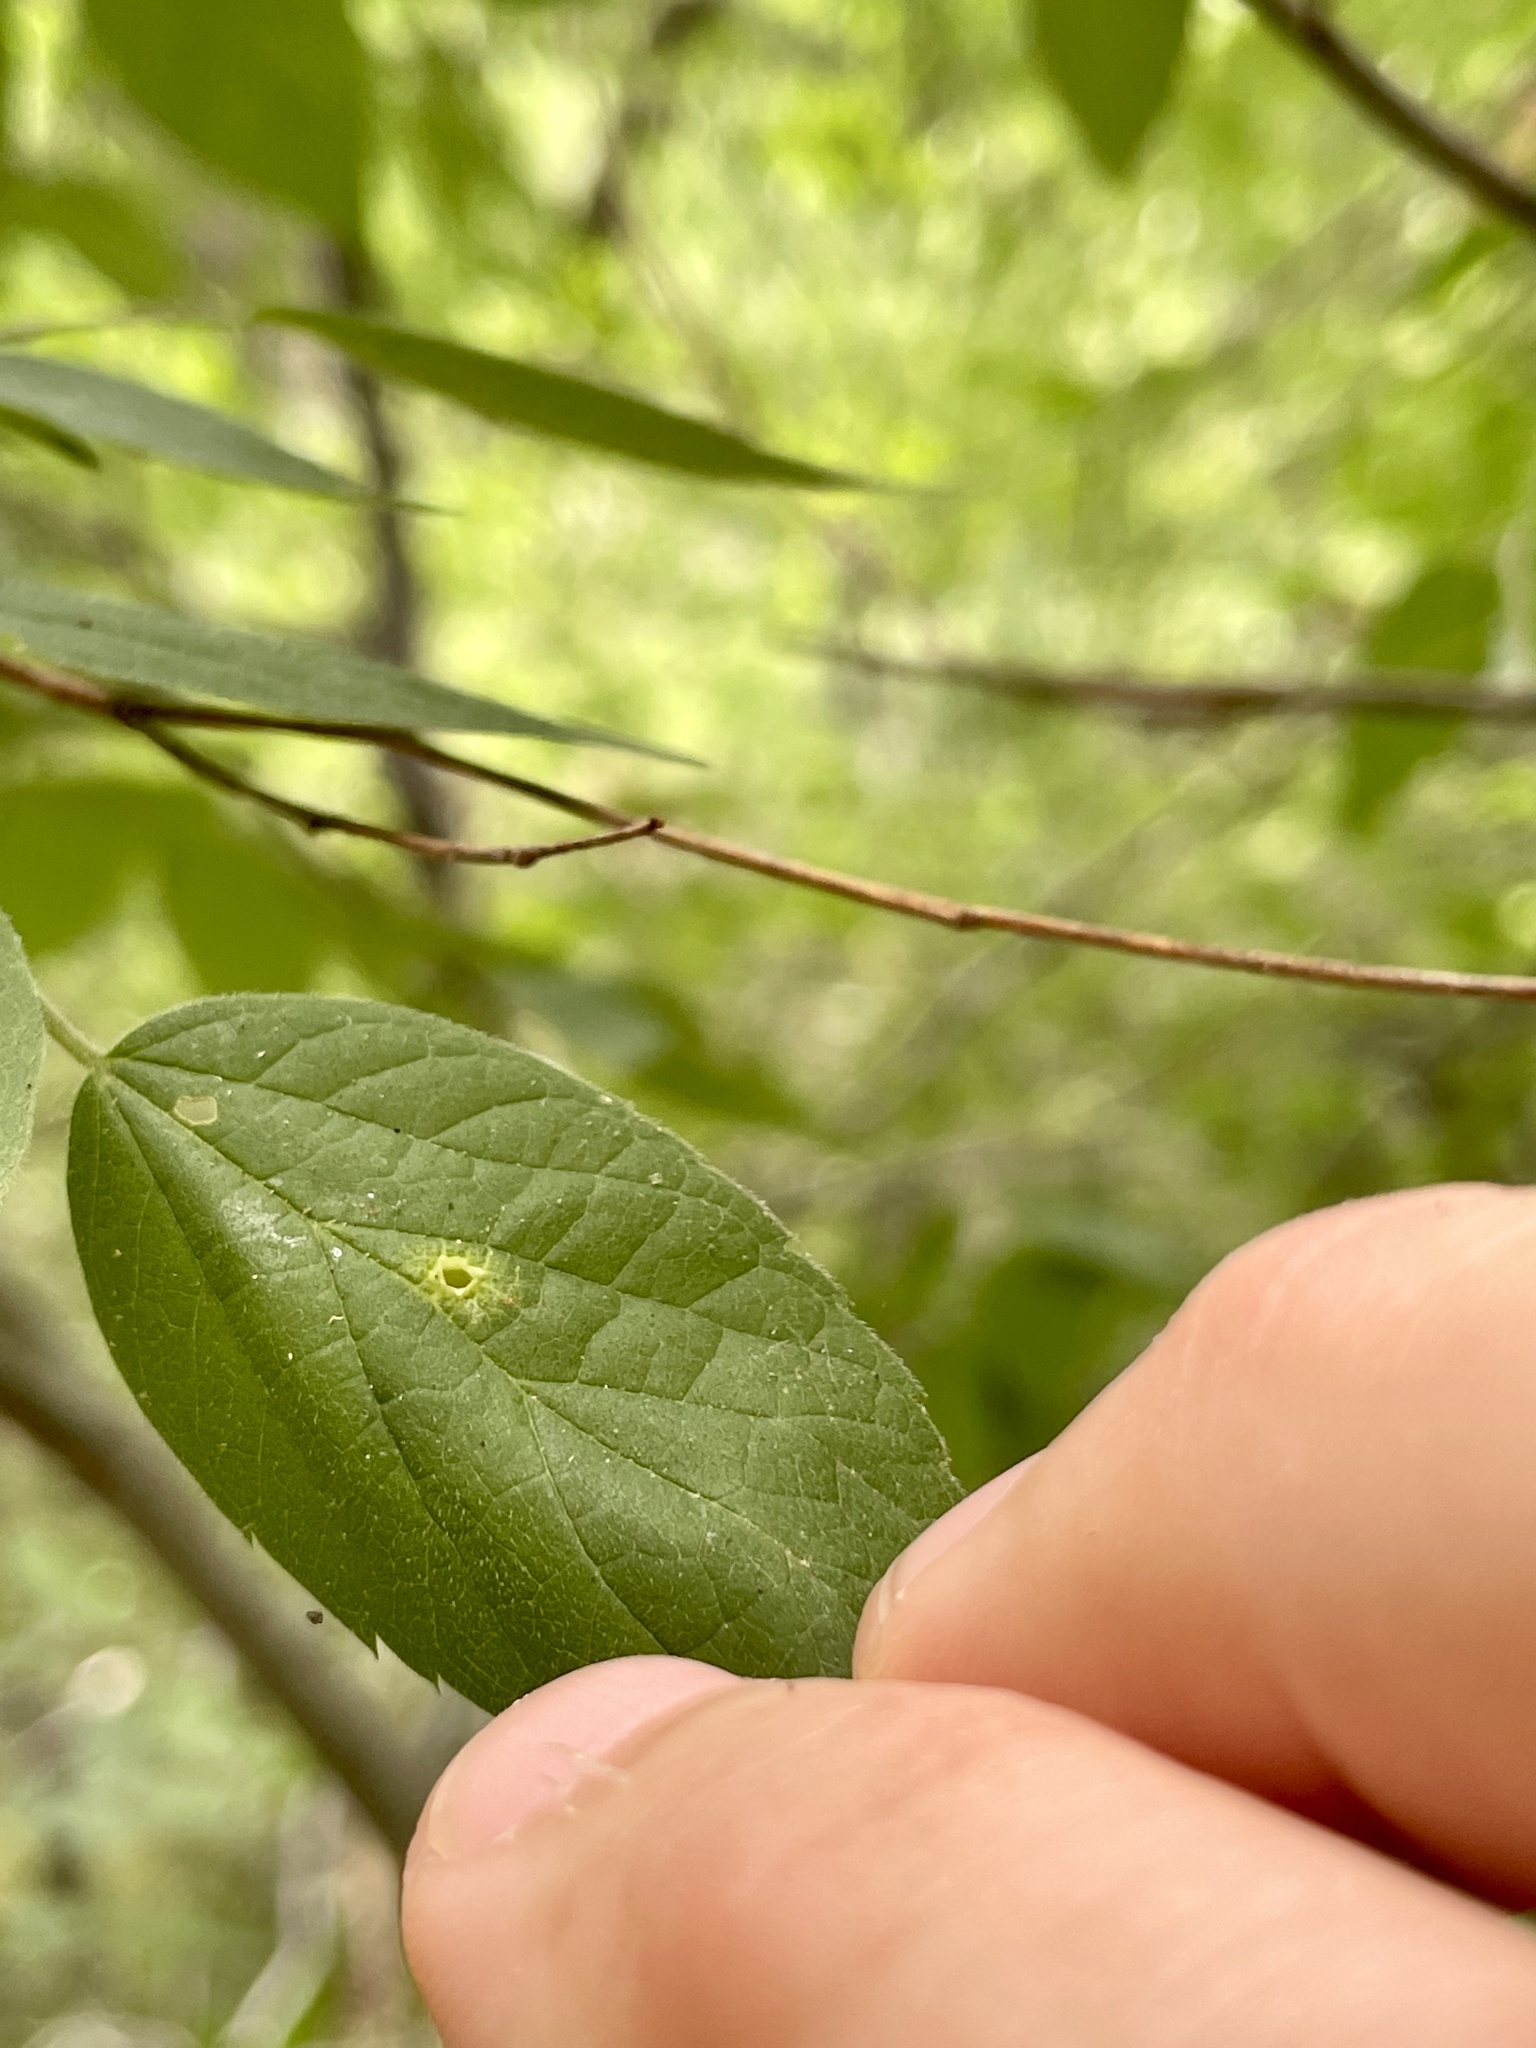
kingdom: Animalia
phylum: Arthropoda
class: Insecta
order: Hemiptera
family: Aphalaridae
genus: Pachypsylla
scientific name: Pachypsylla celtidismamma
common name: Hackberry nipplegall psyllid
